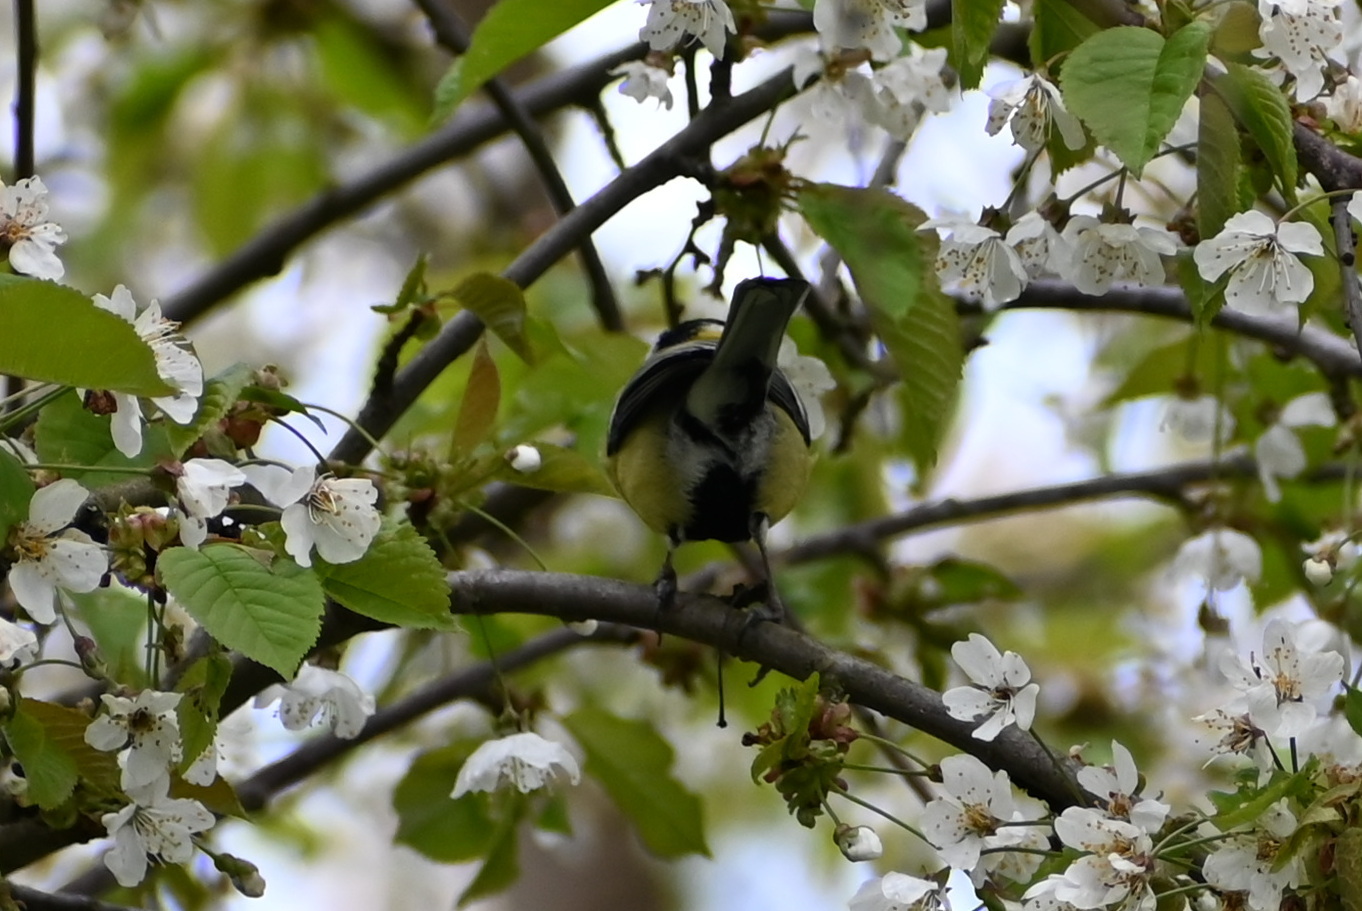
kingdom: Animalia
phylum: Chordata
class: Aves
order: Passeriformes
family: Paridae
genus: Parus
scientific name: Parus major
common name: Great tit
